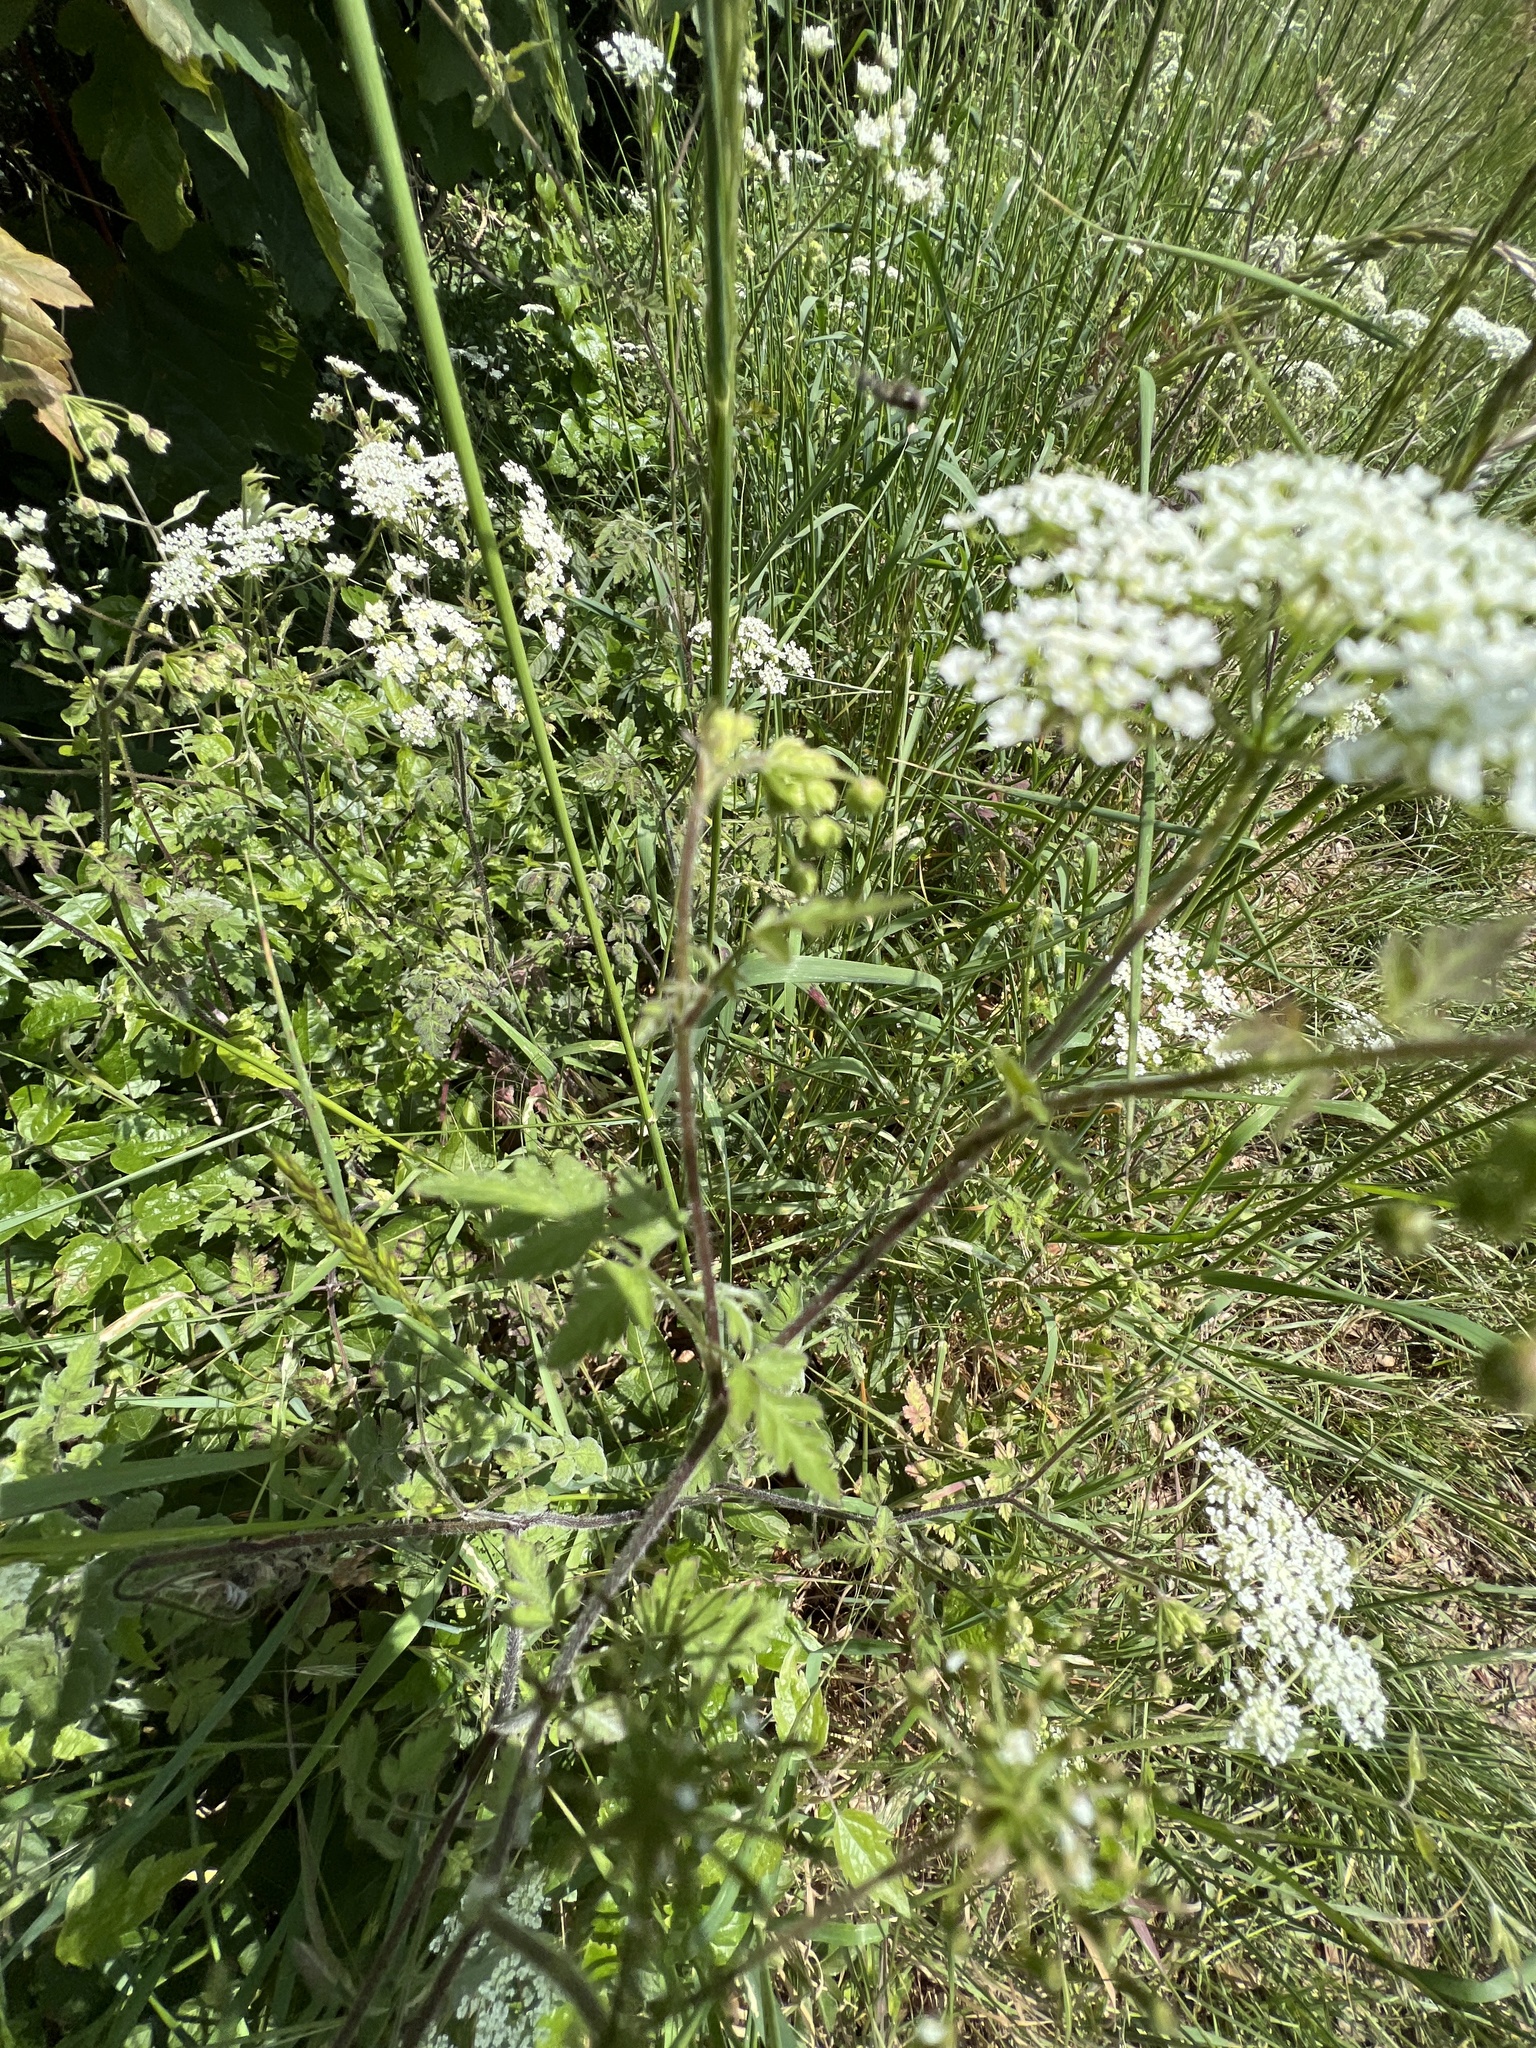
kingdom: Plantae
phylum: Tracheophyta
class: Magnoliopsida
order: Apiales
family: Apiaceae
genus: Chaerophyllum
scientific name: Chaerophyllum temulum
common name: Rough chervil
